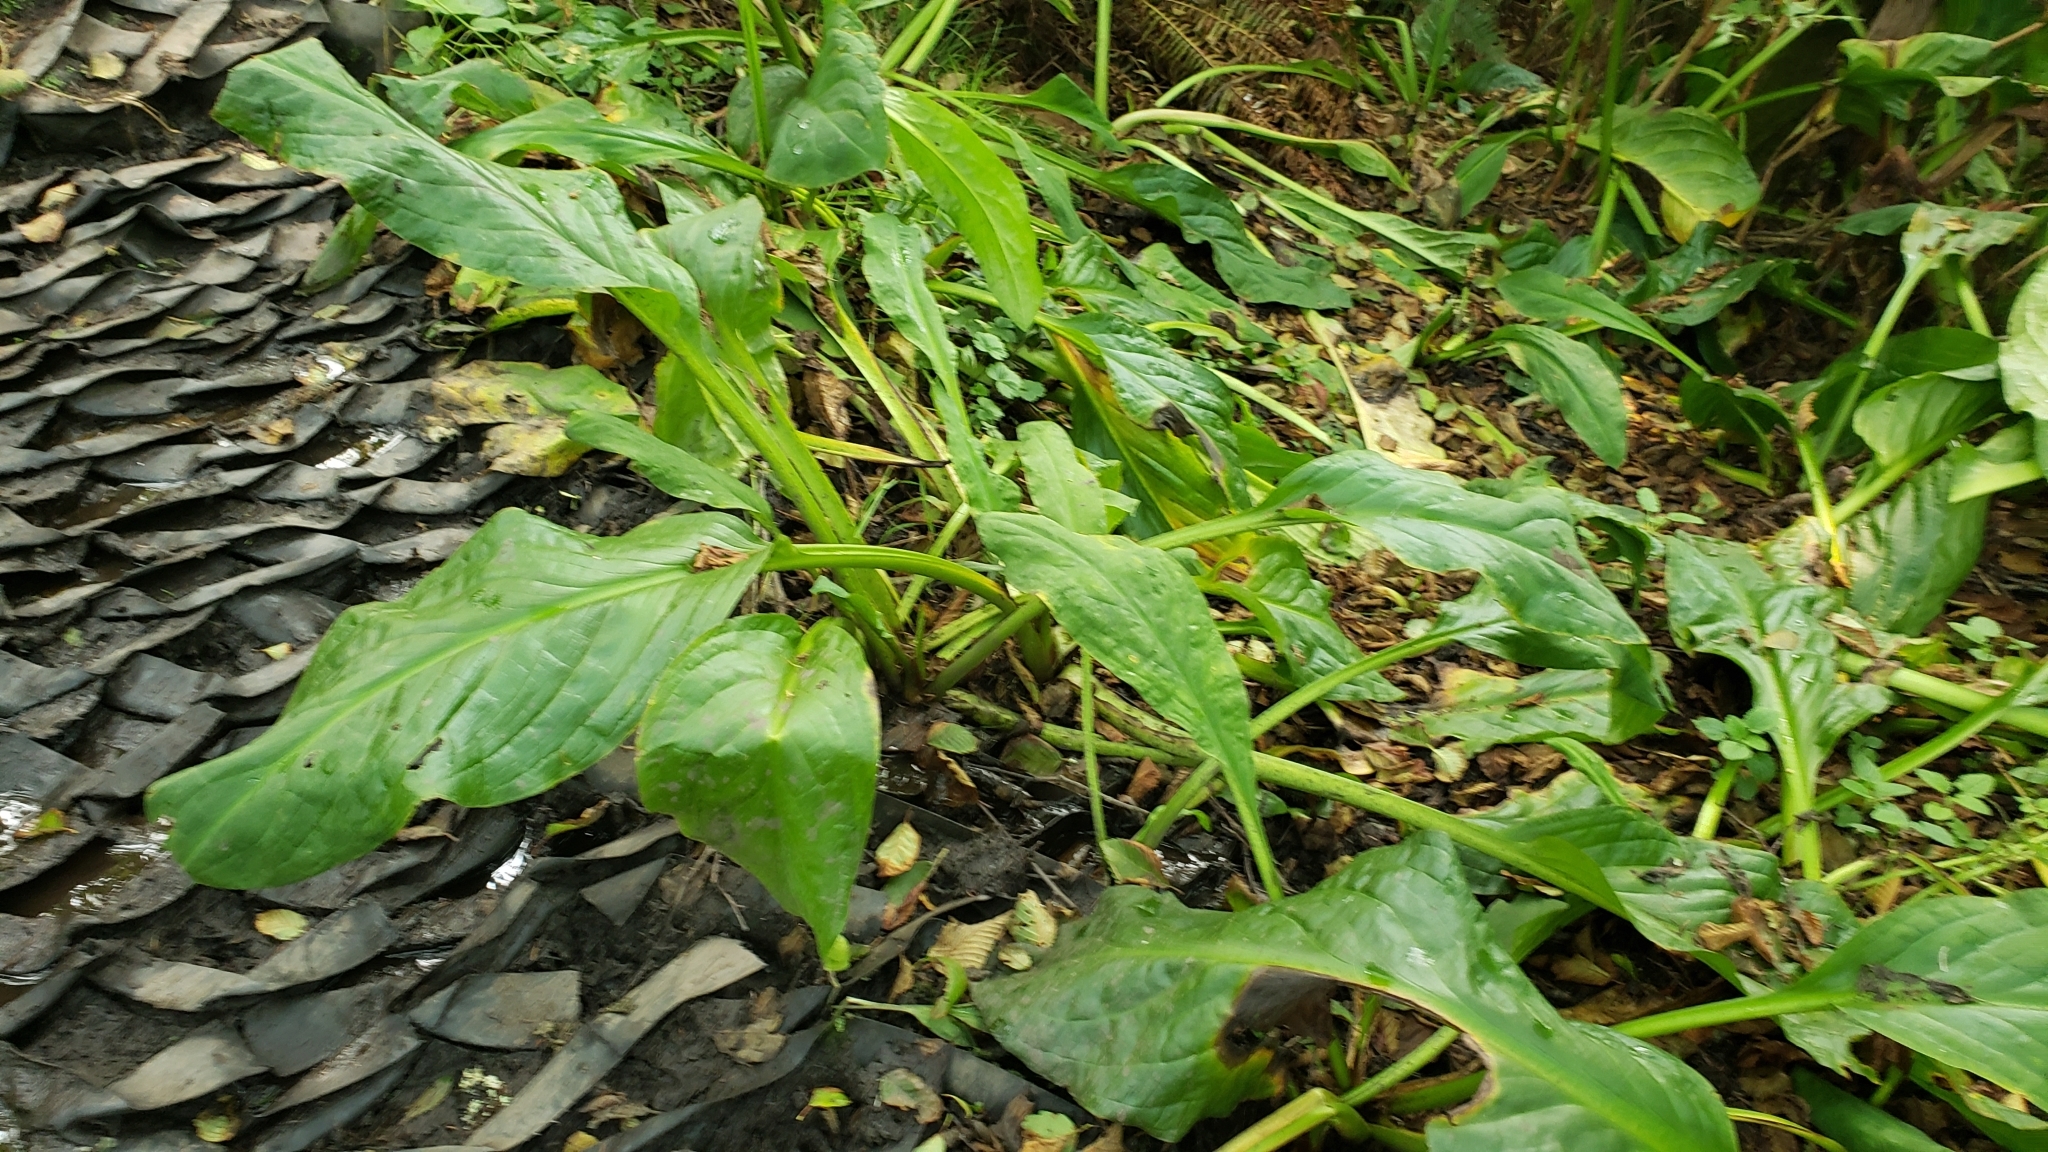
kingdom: Plantae
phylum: Tracheophyta
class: Liliopsida
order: Alismatales
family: Araceae
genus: Lysichiton
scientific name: Lysichiton americanus
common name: American skunk cabbage
